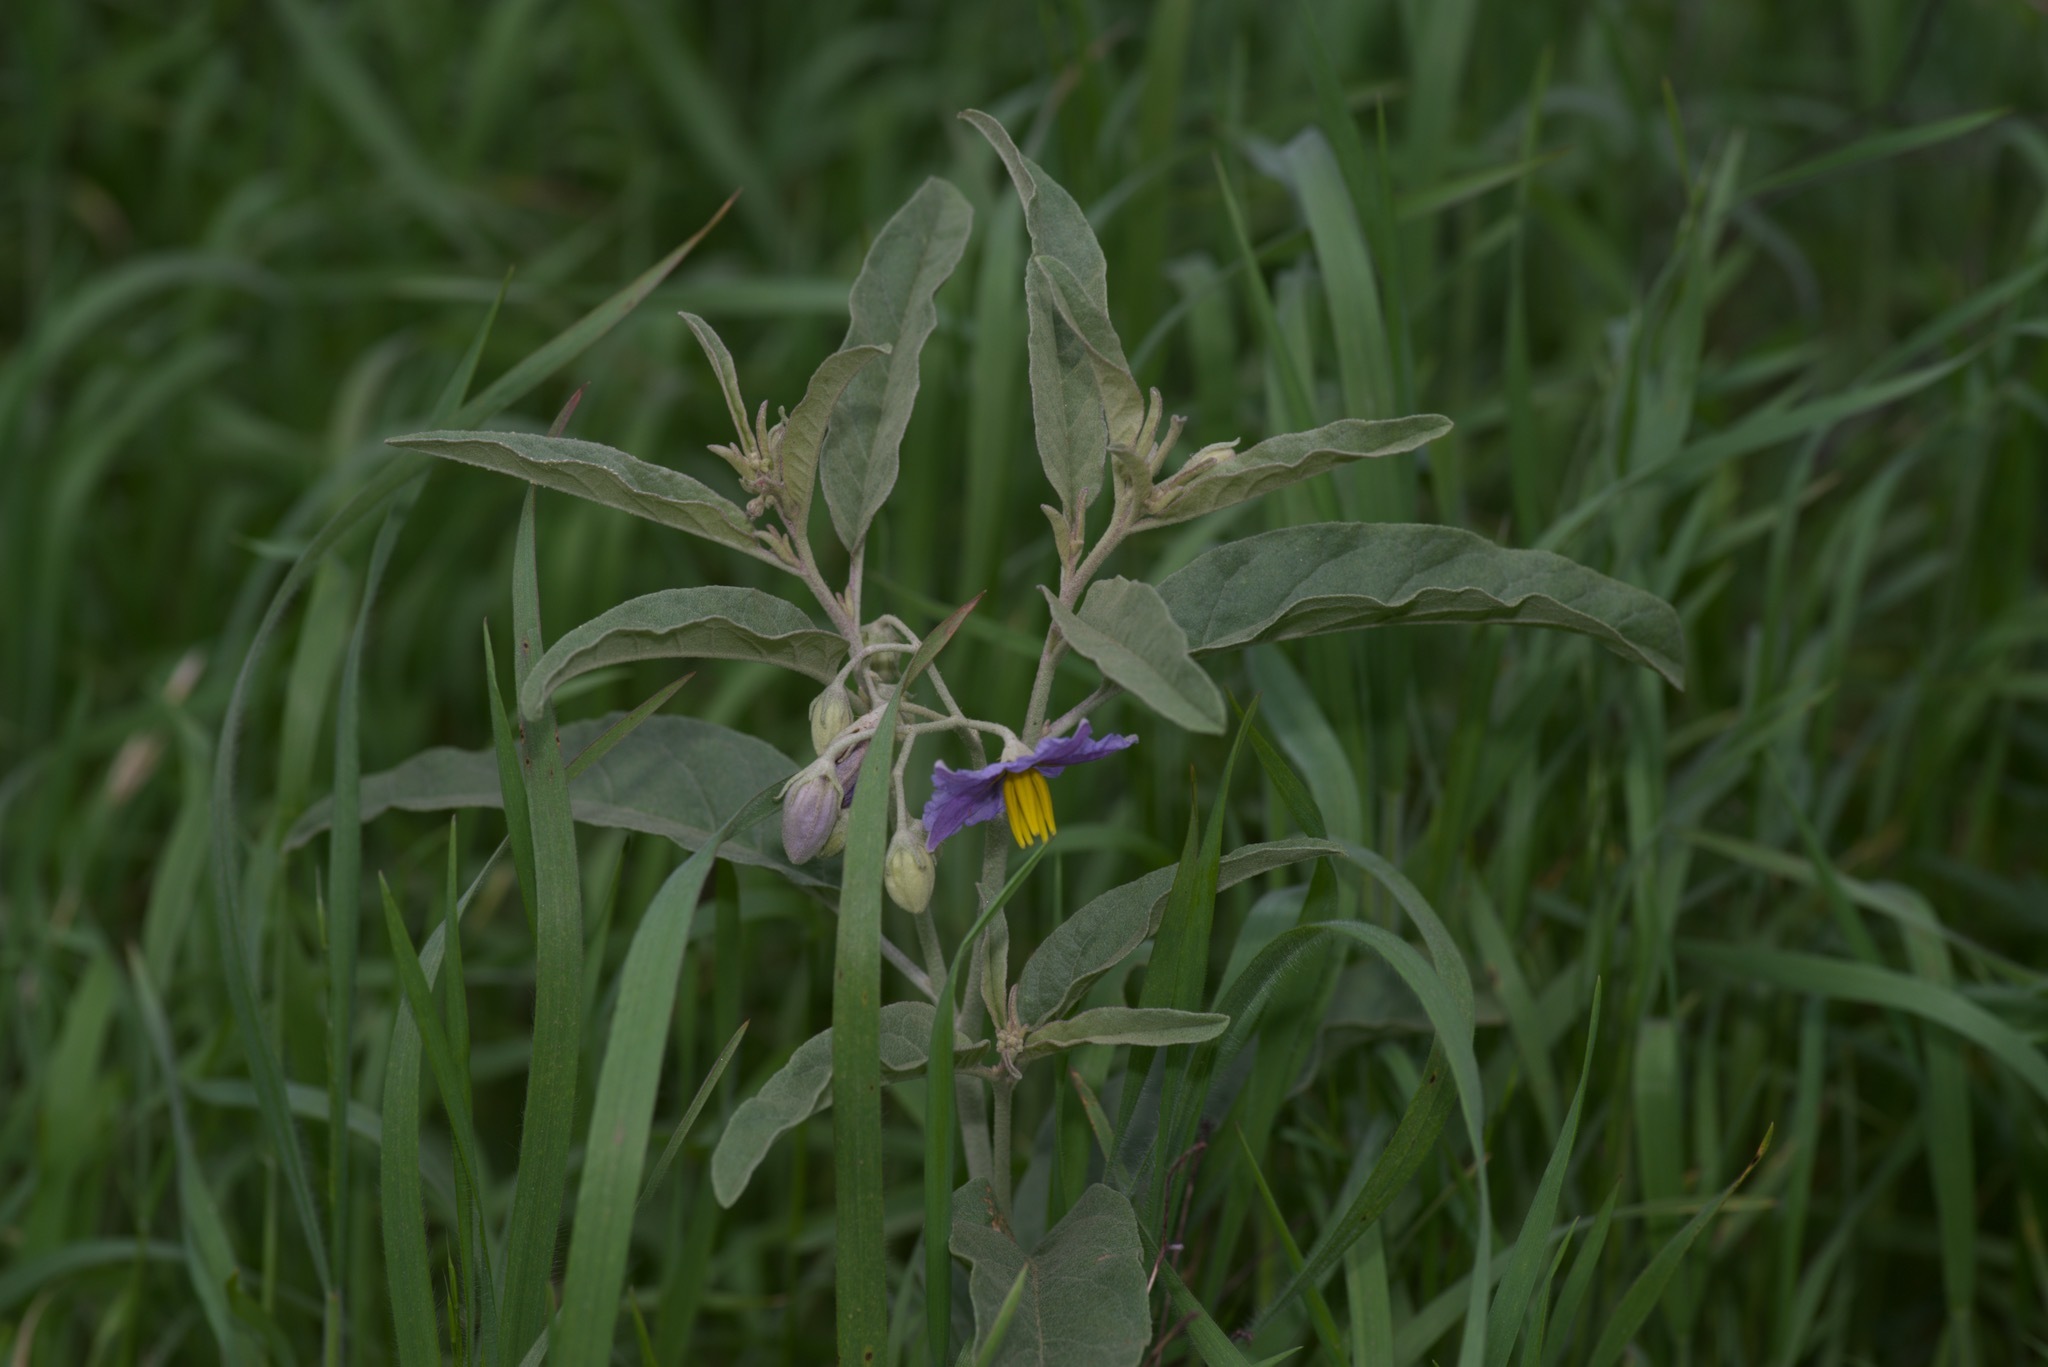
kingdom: Plantae
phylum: Tracheophyta
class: Magnoliopsida
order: Solanales
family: Solanaceae
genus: Solanum
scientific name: Solanum elaeagnifolium
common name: Silverleaf nightshade
